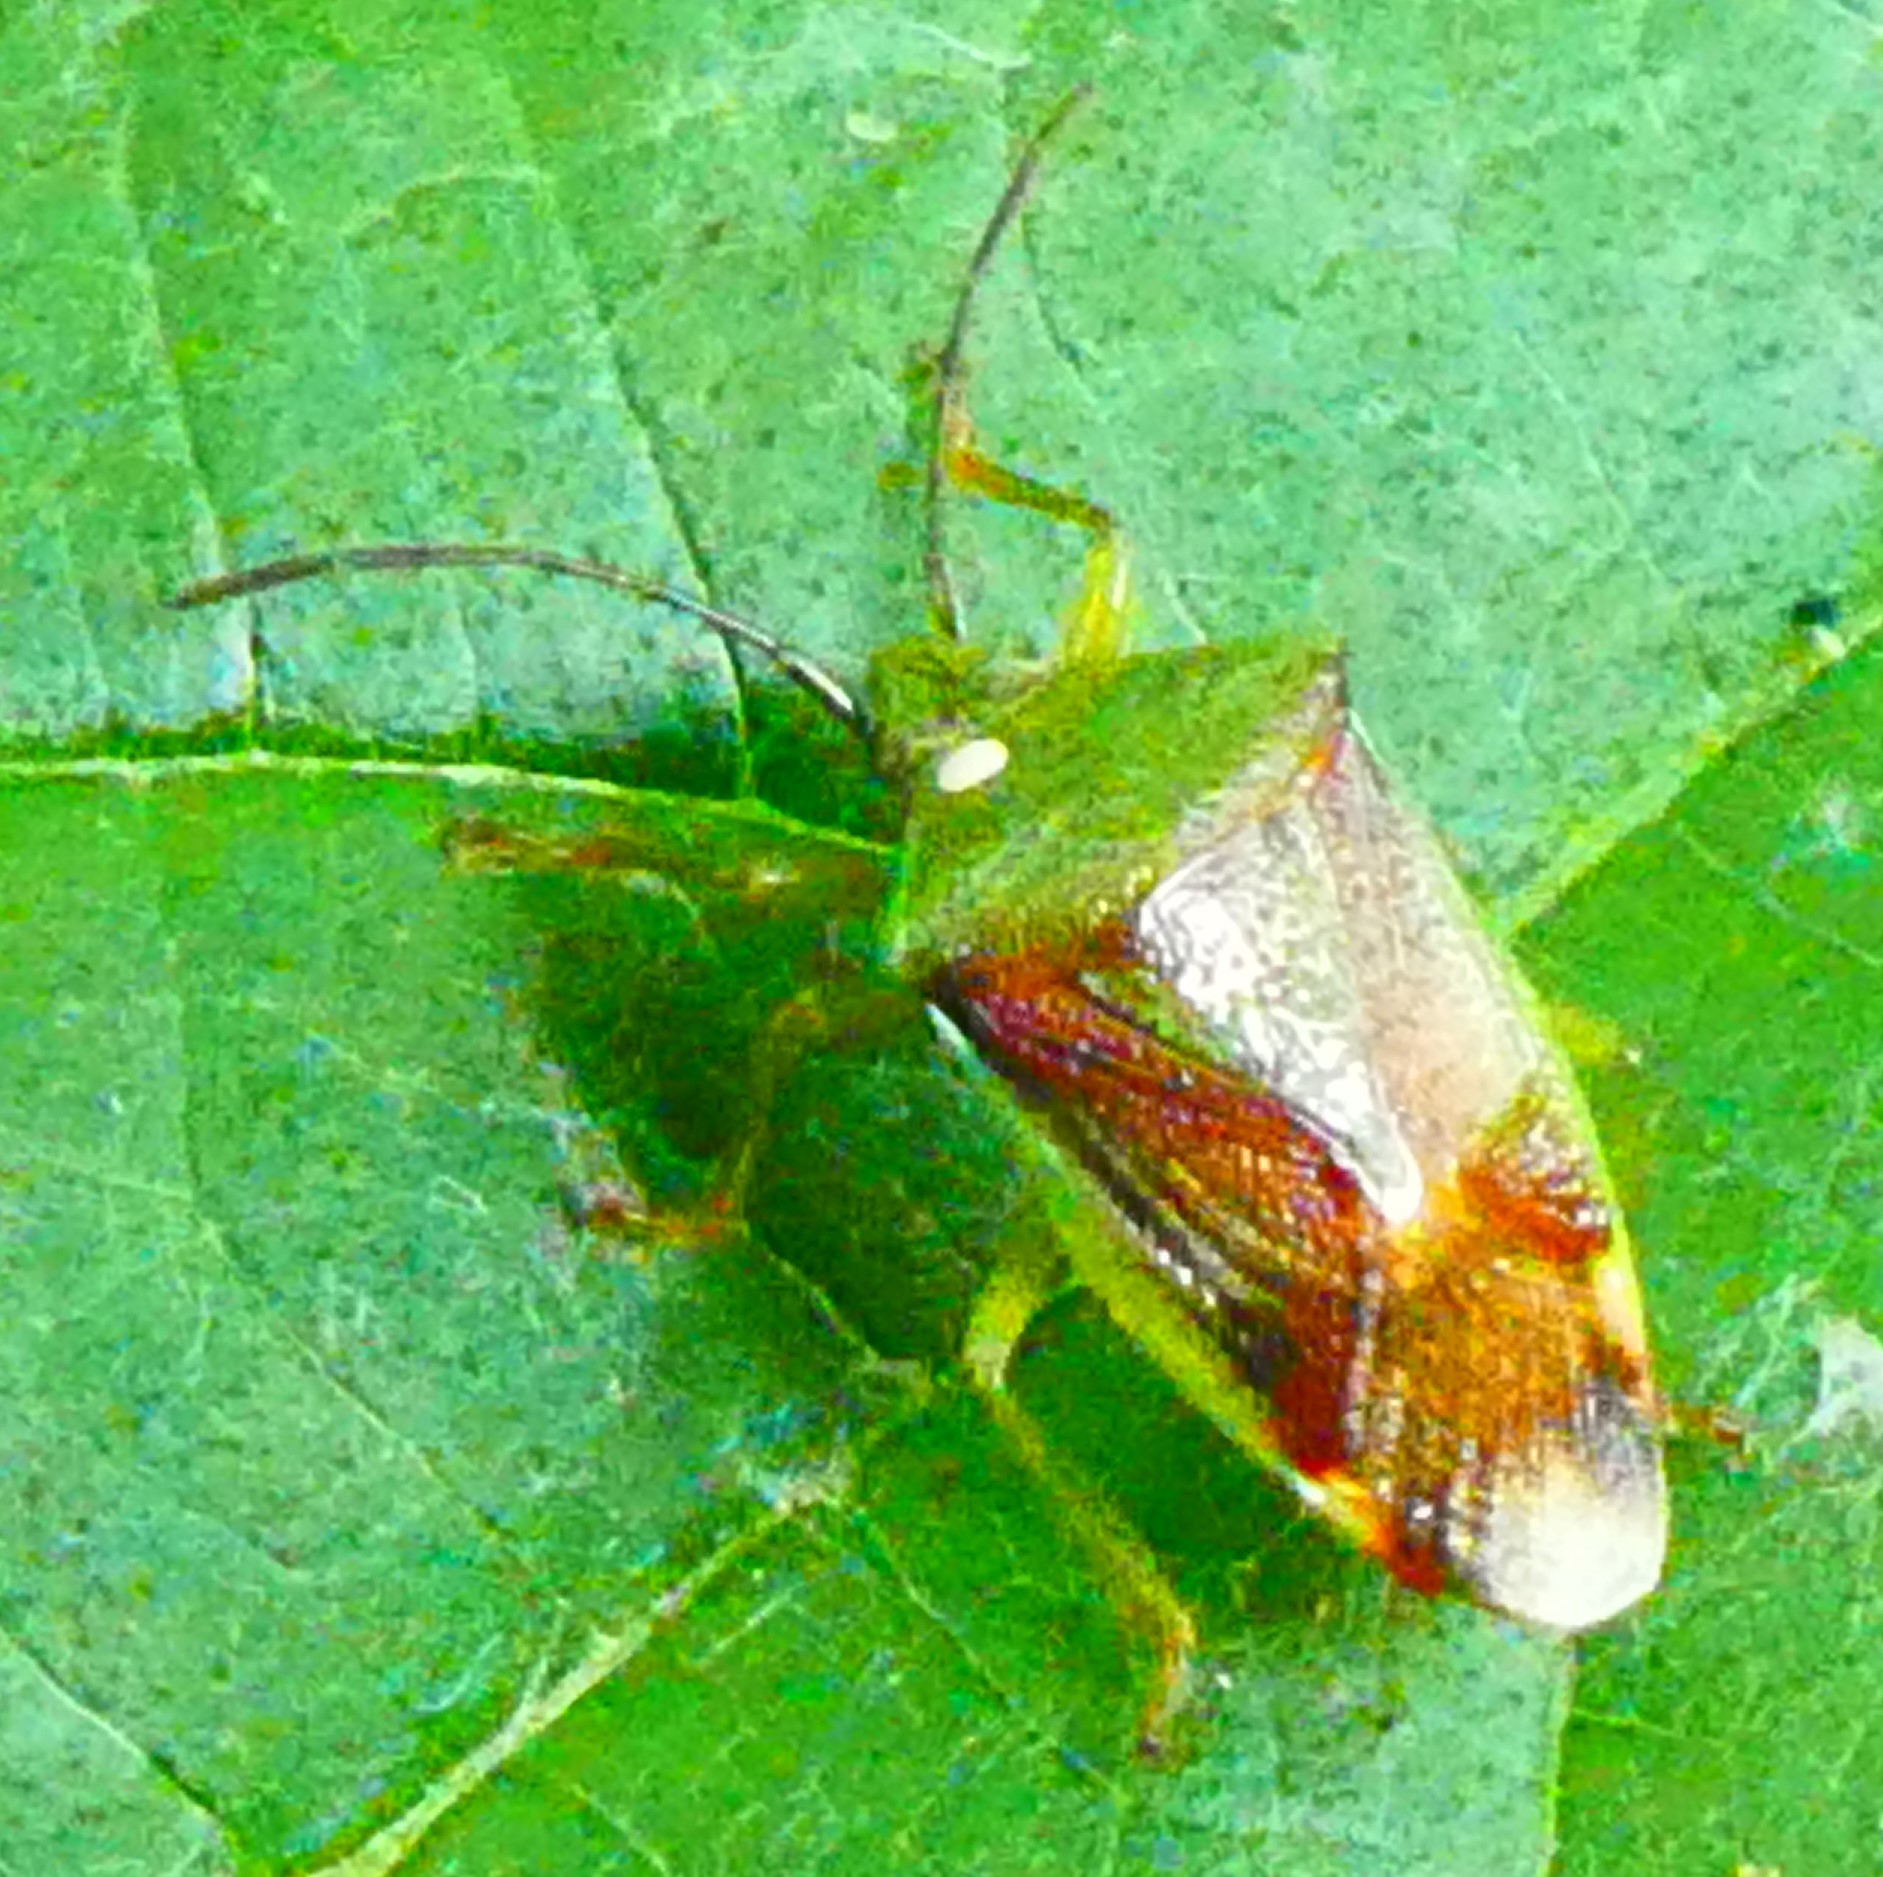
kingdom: Animalia
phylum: Arthropoda
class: Insecta
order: Hemiptera
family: Acanthosomatidae
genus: Elasmostethus
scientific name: Elasmostethus interstinctus
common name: Birch shieldbug
